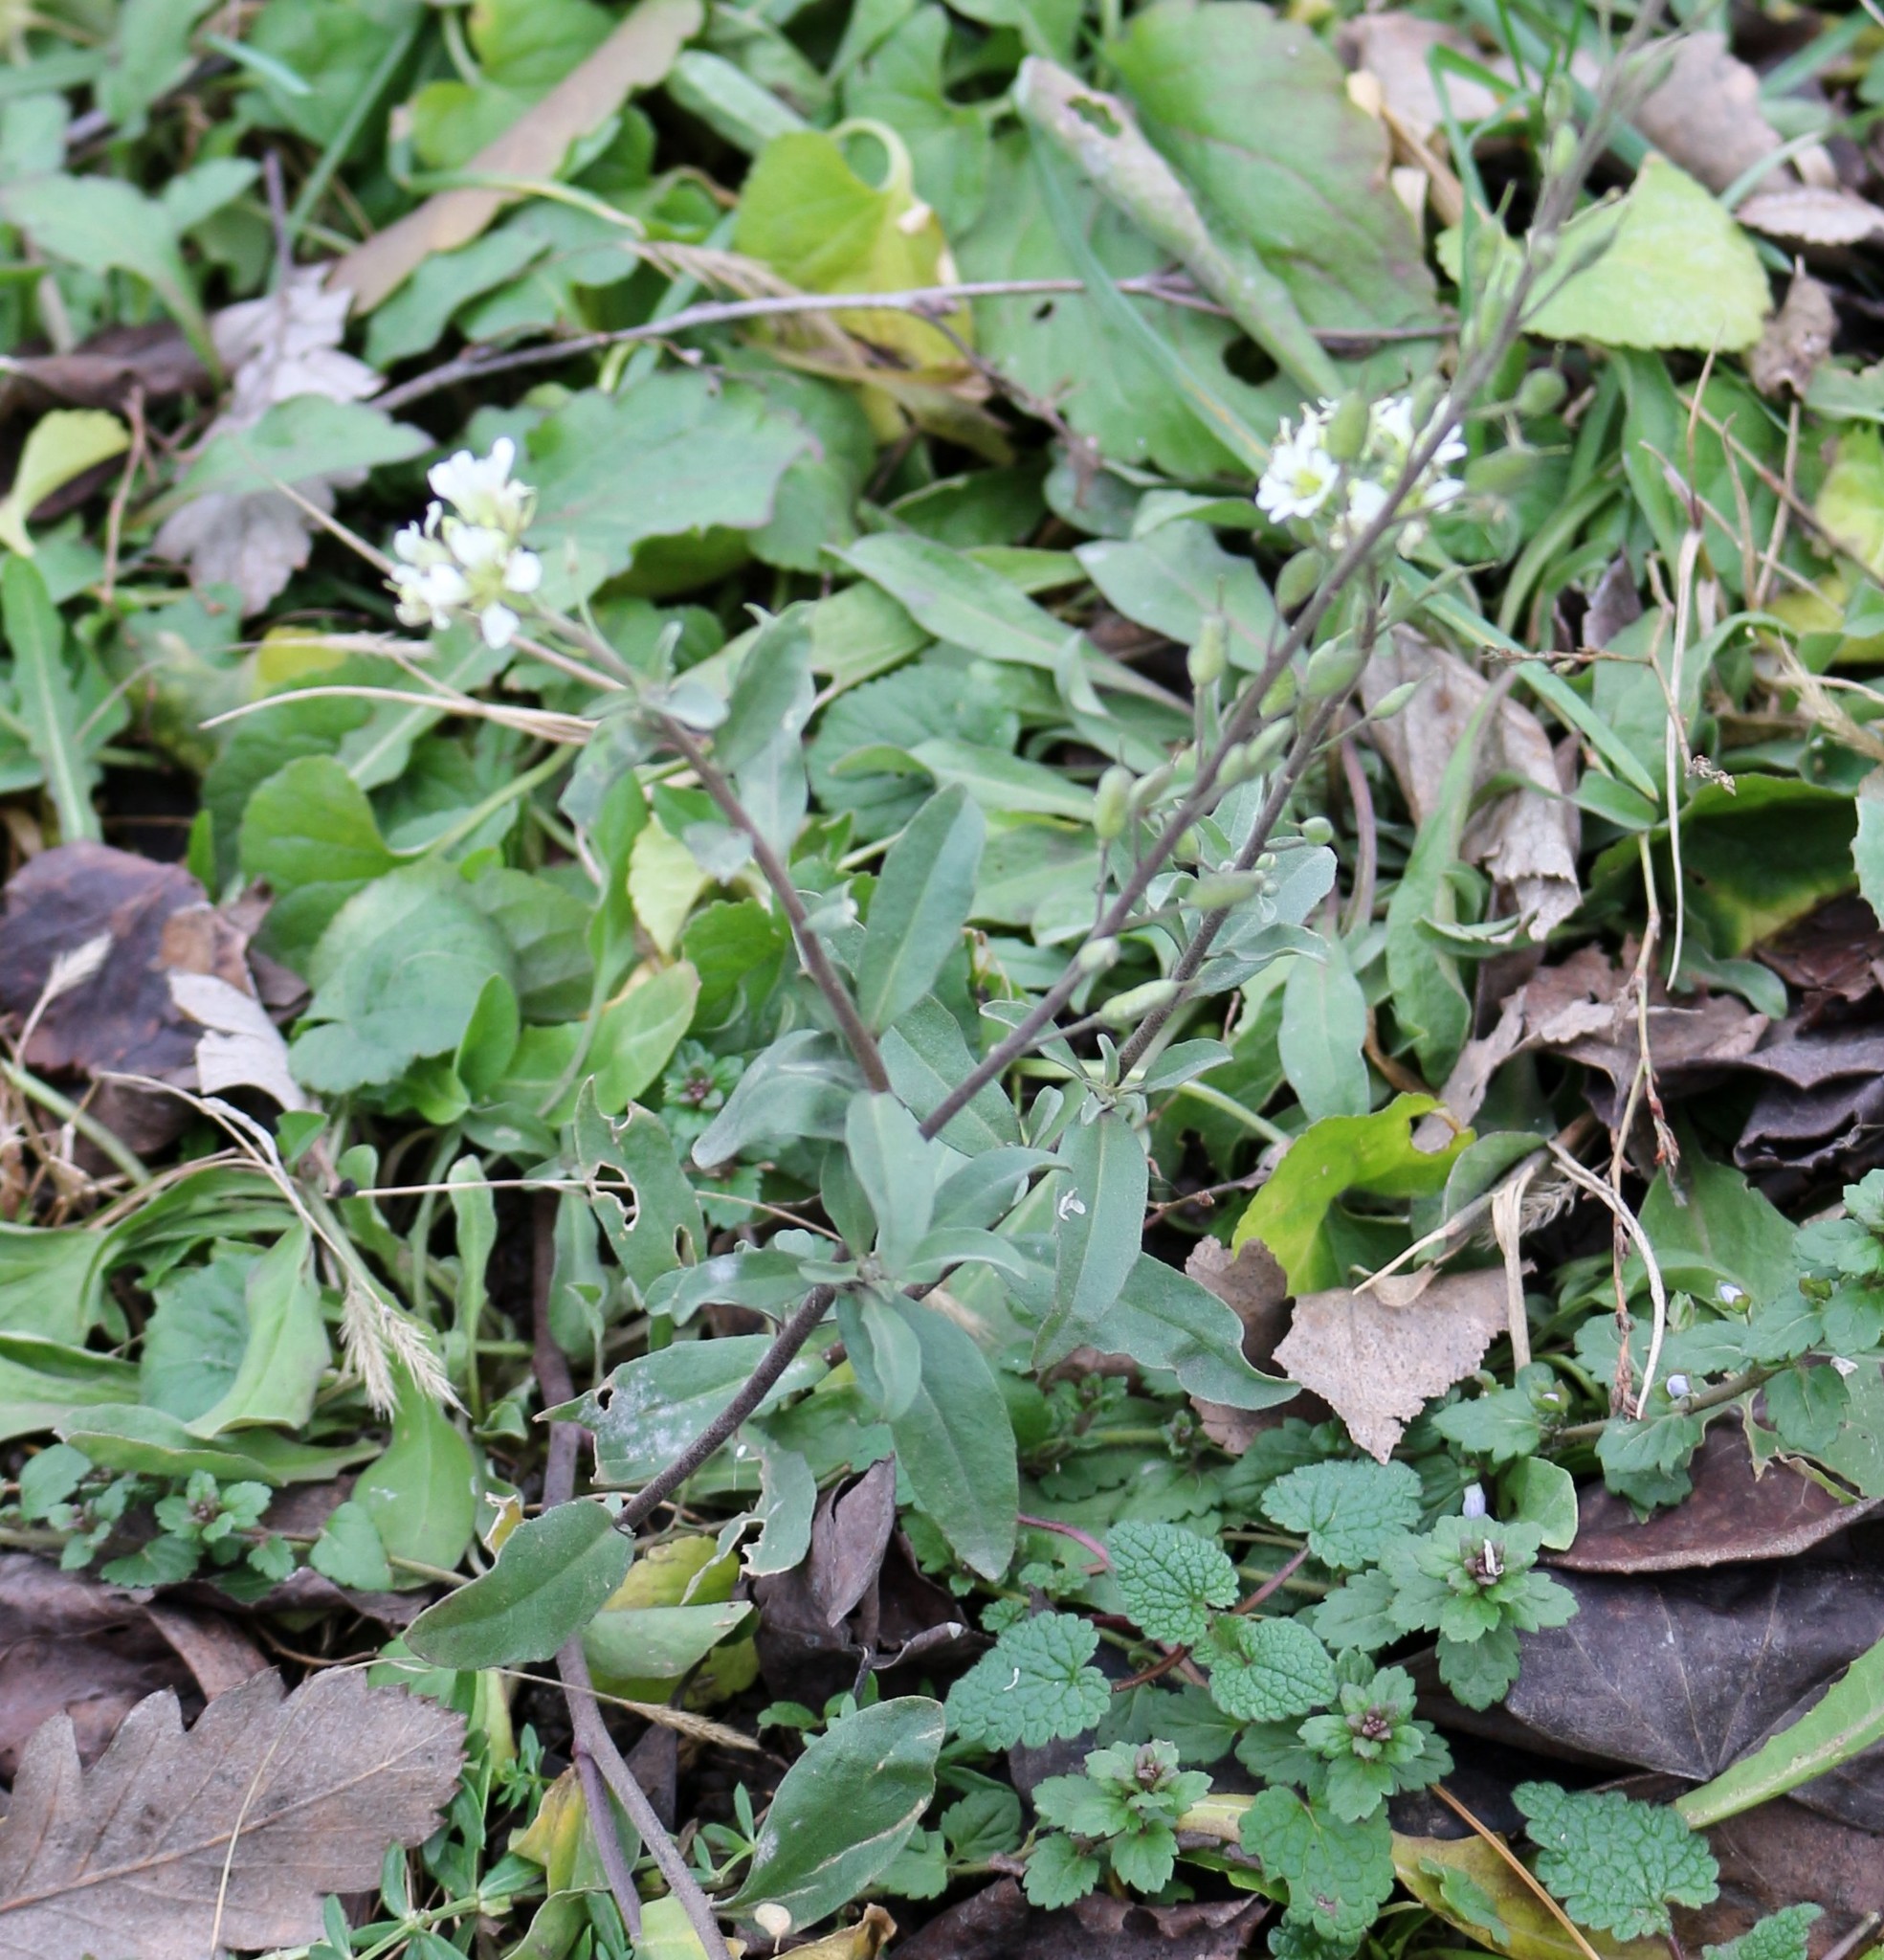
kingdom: Plantae
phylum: Tracheophyta
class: Magnoliopsida
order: Brassicales
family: Brassicaceae
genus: Berteroa
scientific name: Berteroa incana
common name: Hoary alison
